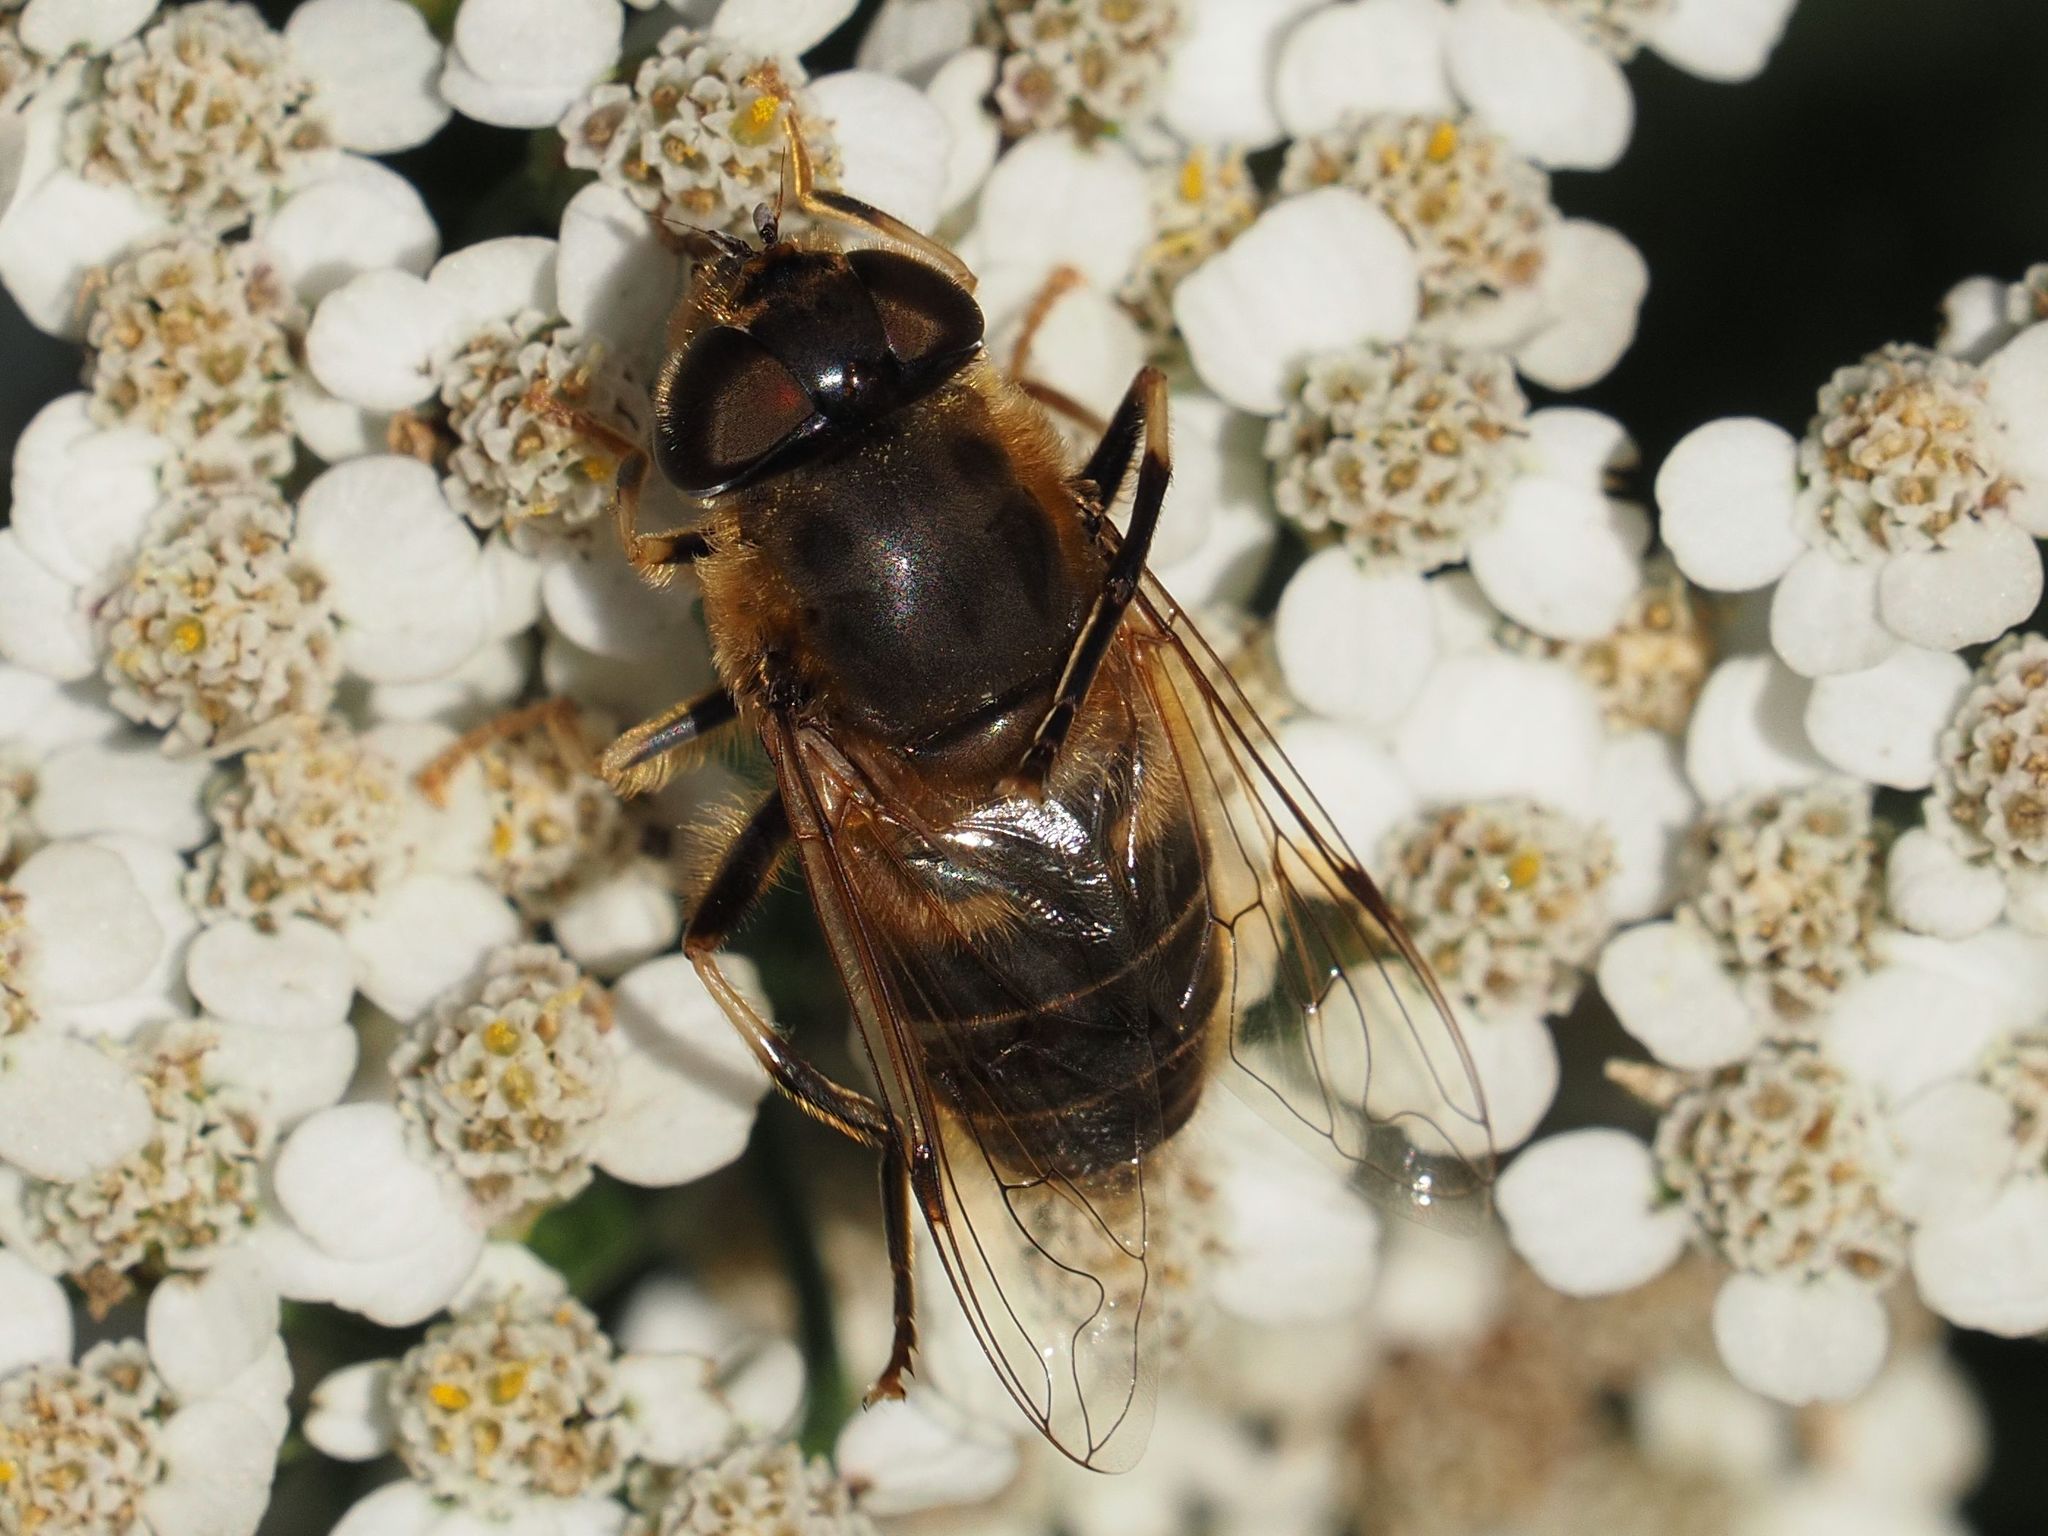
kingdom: Animalia
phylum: Arthropoda
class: Insecta
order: Diptera
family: Syrphidae
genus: Eristalis
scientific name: Eristalis pertinax
